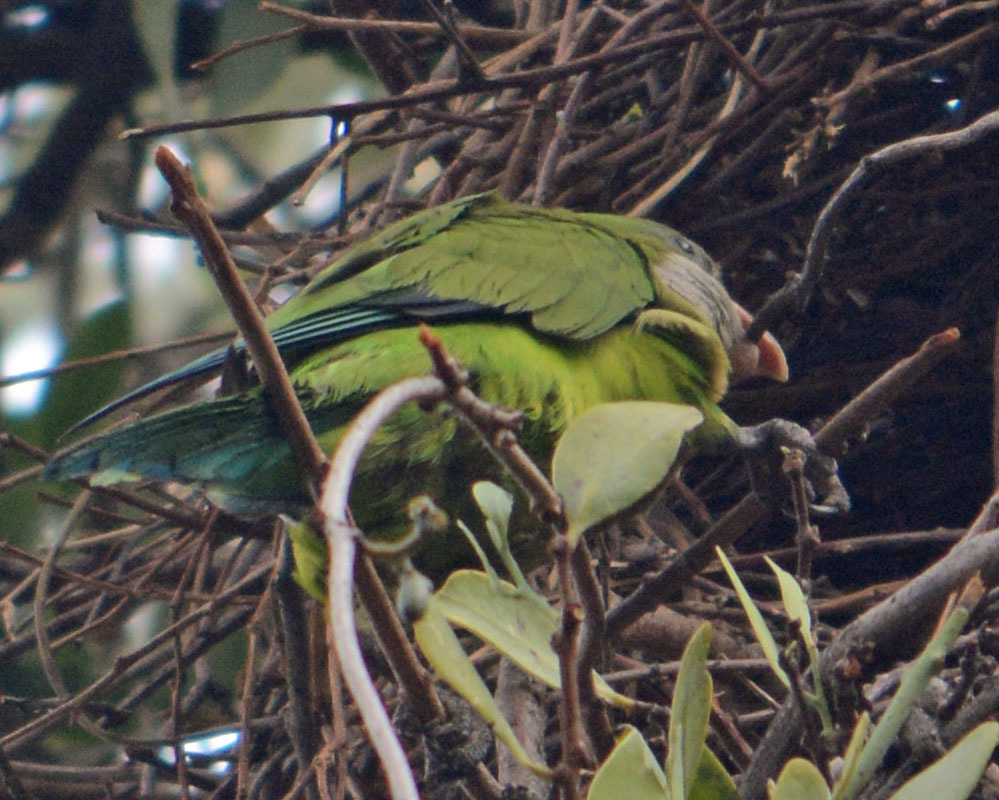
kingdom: Animalia
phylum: Chordata
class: Aves
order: Psittaciformes
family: Psittacidae
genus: Myiopsitta
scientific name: Myiopsitta monachus
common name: Monk parakeet
